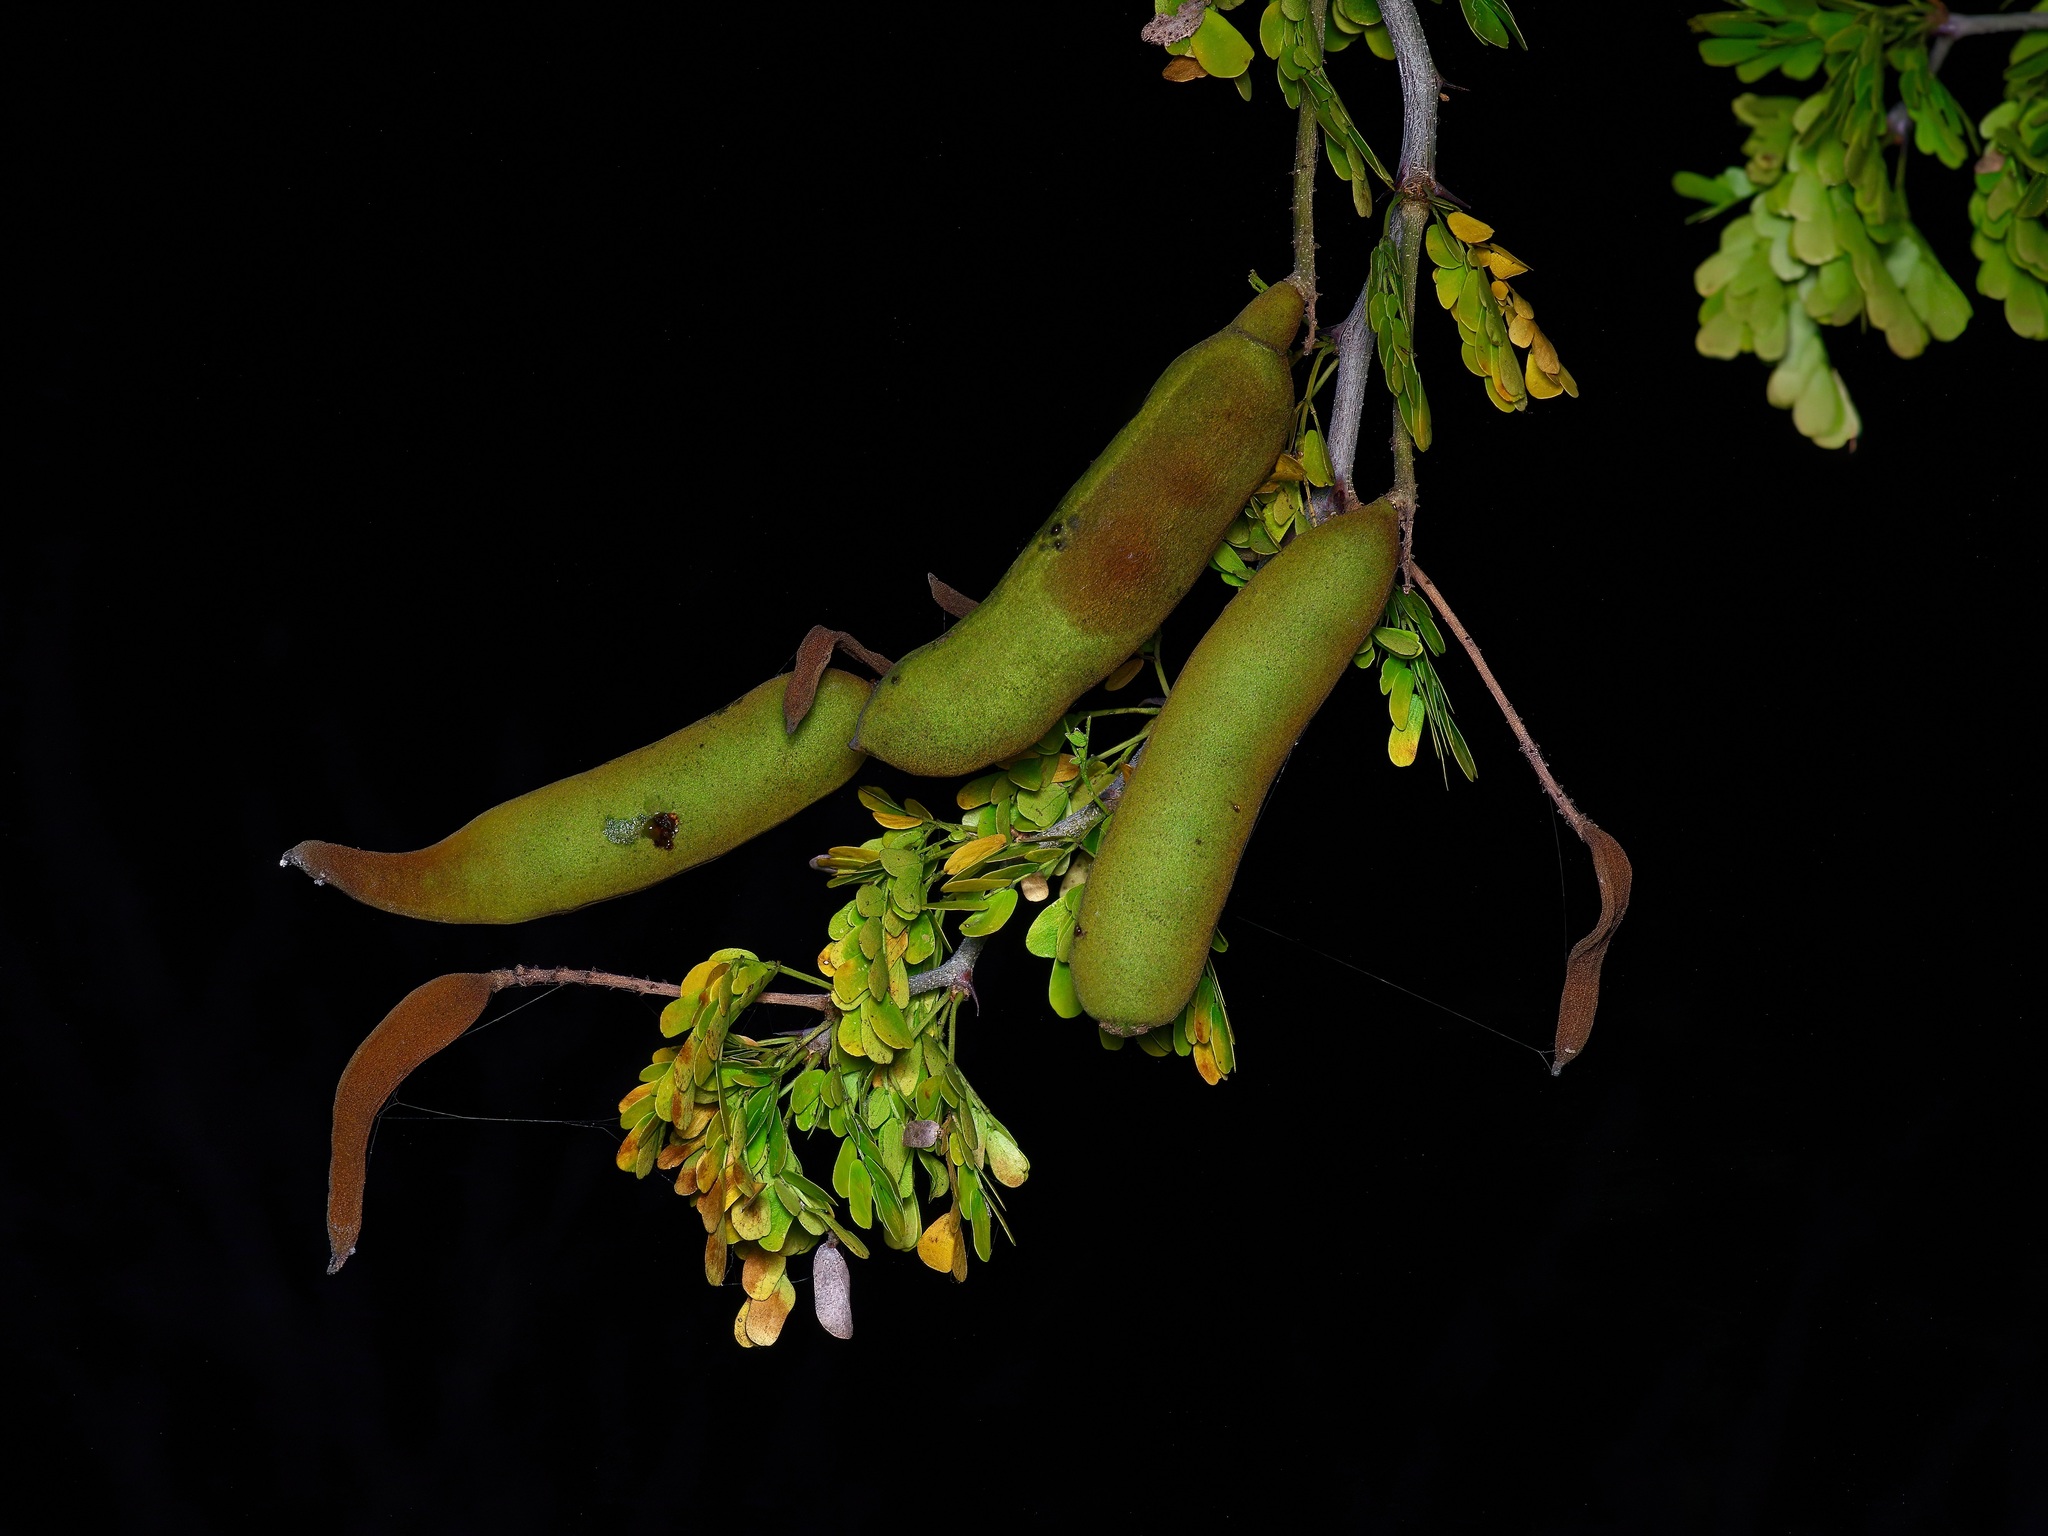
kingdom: Plantae
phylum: Tracheophyta
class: Magnoliopsida
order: Fabales
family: Fabaceae
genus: Ebenopsis
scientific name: Ebenopsis ebano
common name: Ebony blackbead
